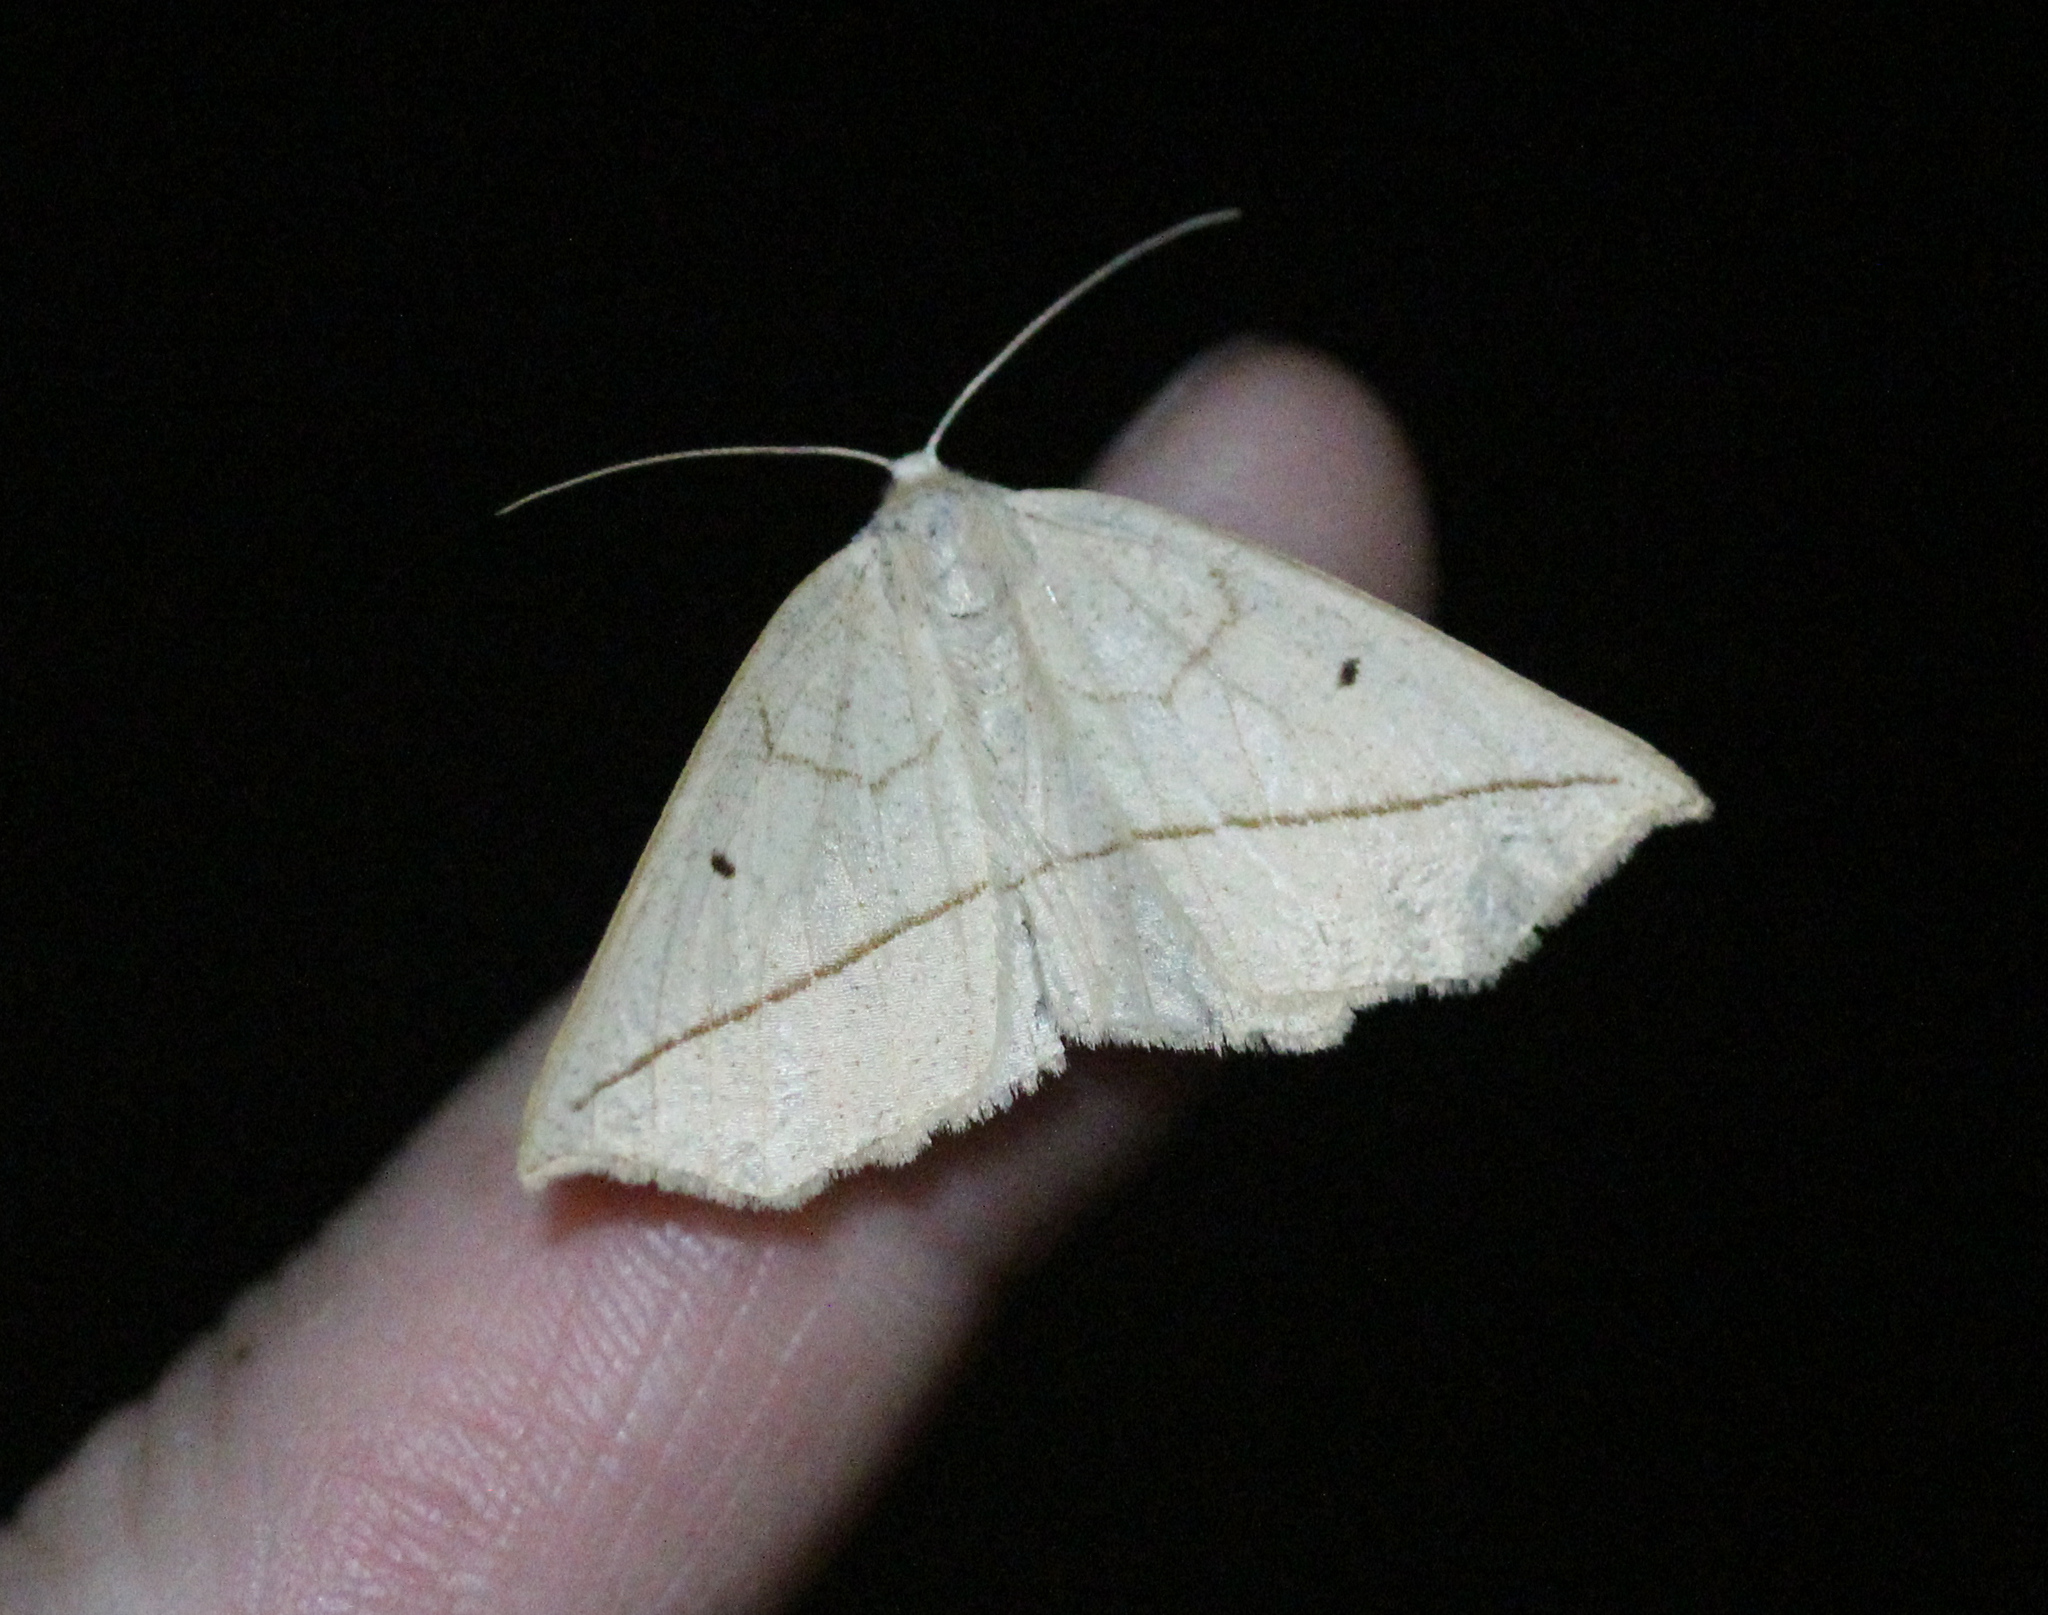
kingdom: Animalia
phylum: Arthropoda
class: Insecta
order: Lepidoptera
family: Geometridae
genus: Eusarca
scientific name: Eusarca confusaria
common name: Confused eusarca
